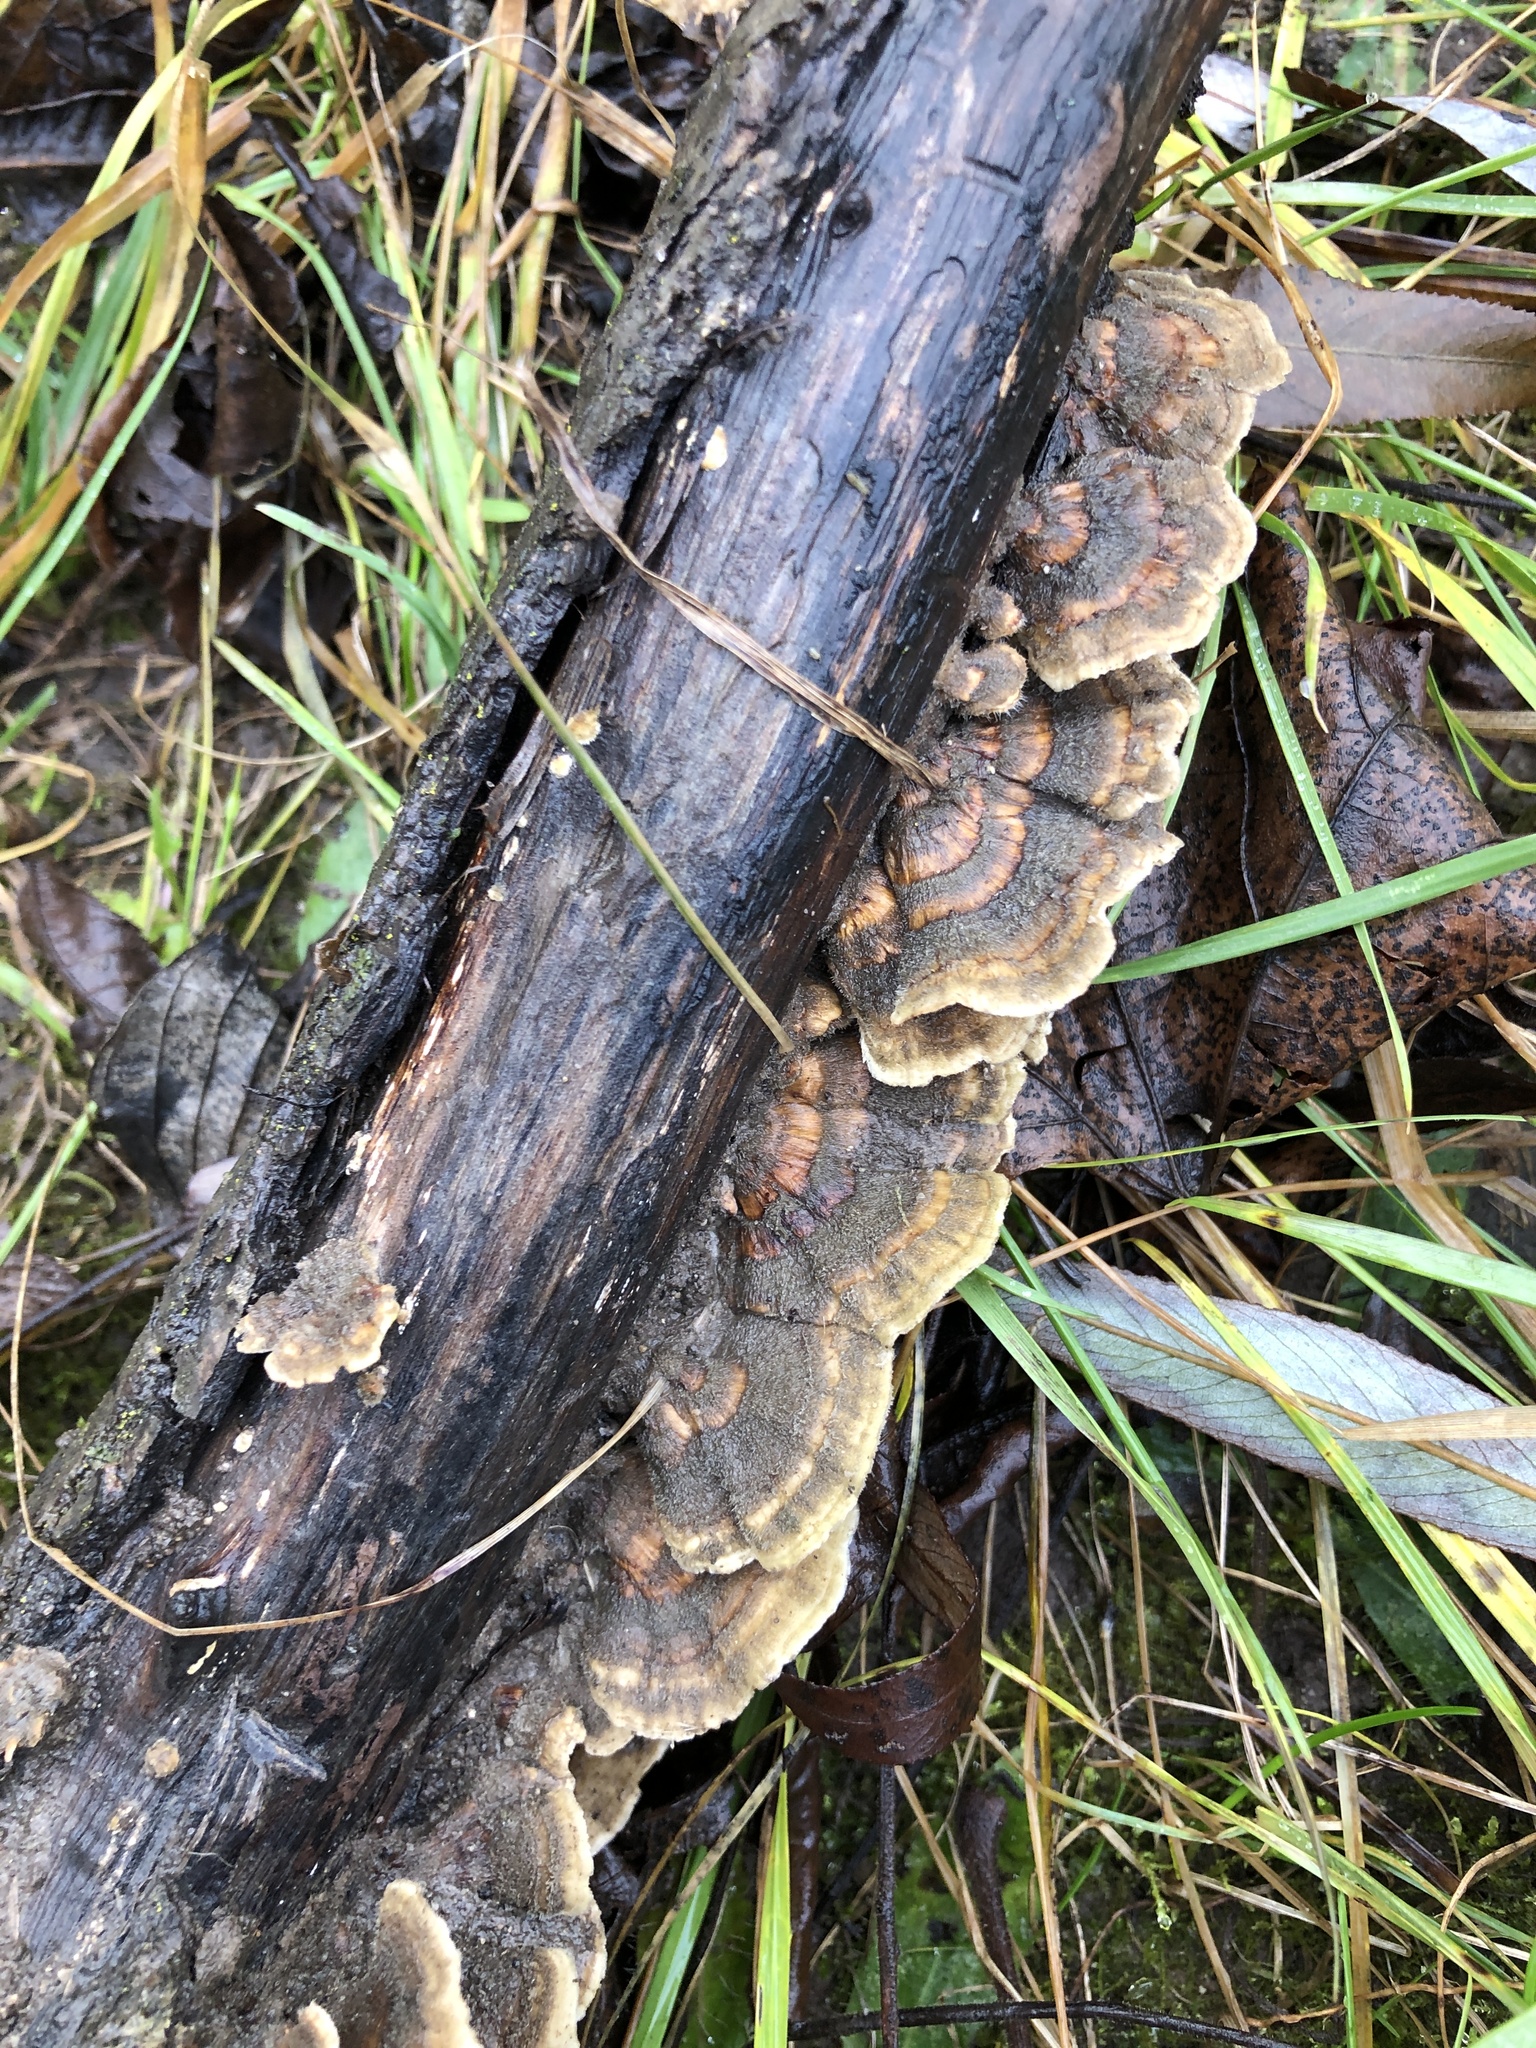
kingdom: Fungi
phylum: Basidiomycota
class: Agaricomycetes
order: Polyporales
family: Polyporaceae
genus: Trametes
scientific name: Trametes versicolor
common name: Turkeytail
